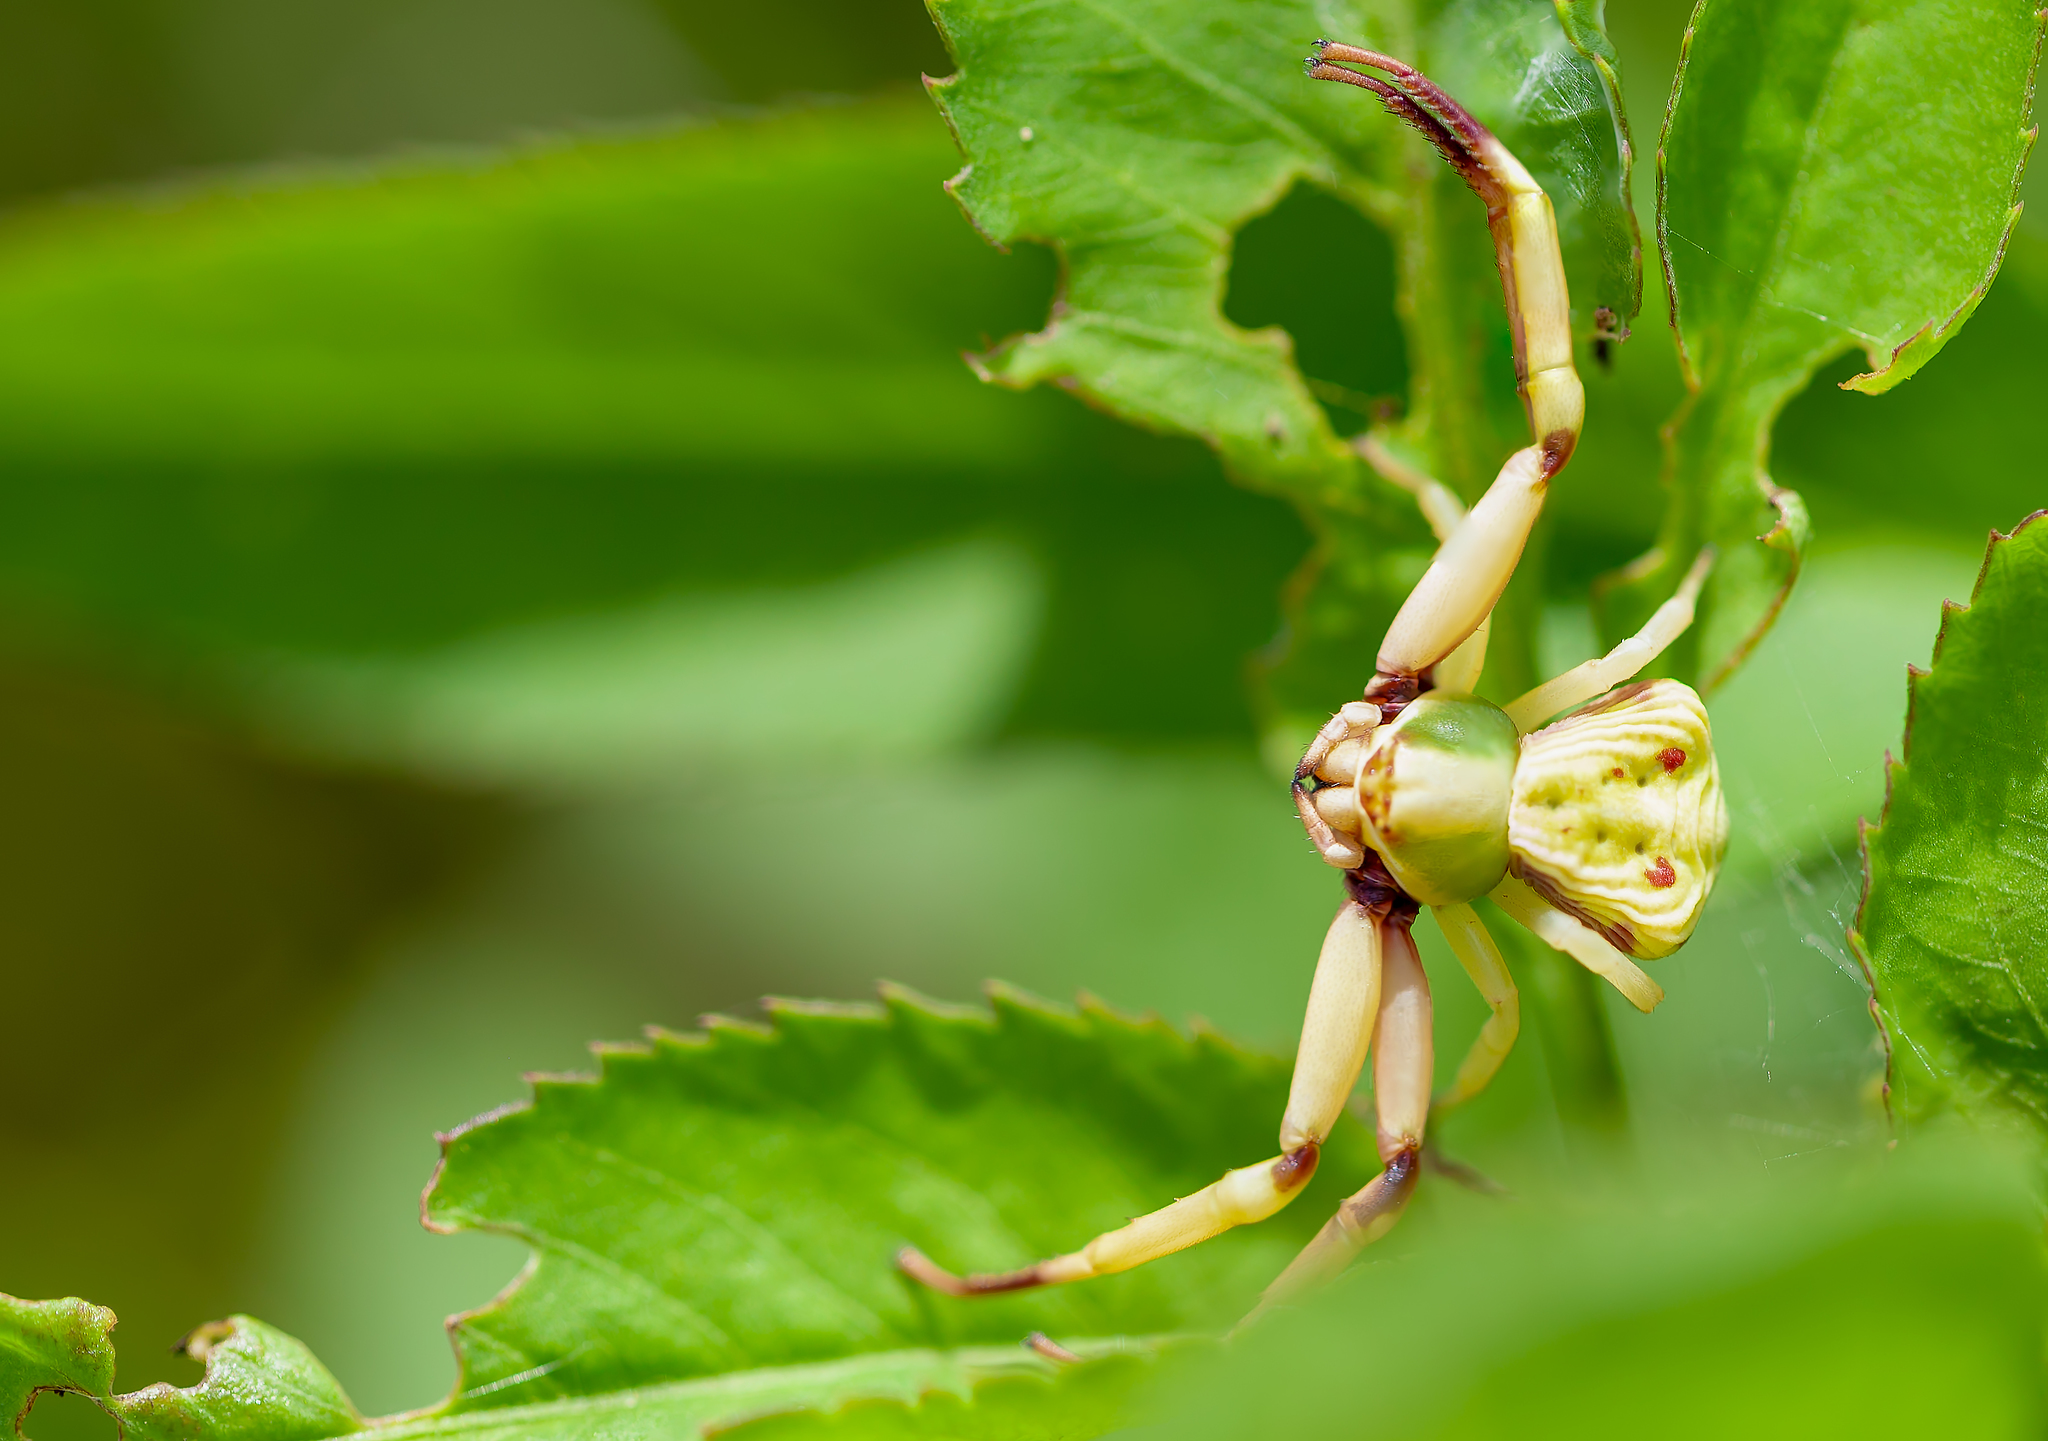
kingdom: Animalia
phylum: Arthropoda
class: Arachnida
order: Araneae
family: Thomisidae
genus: Misumenoides
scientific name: Misumenoides formosipes
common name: White-banded crab spider
